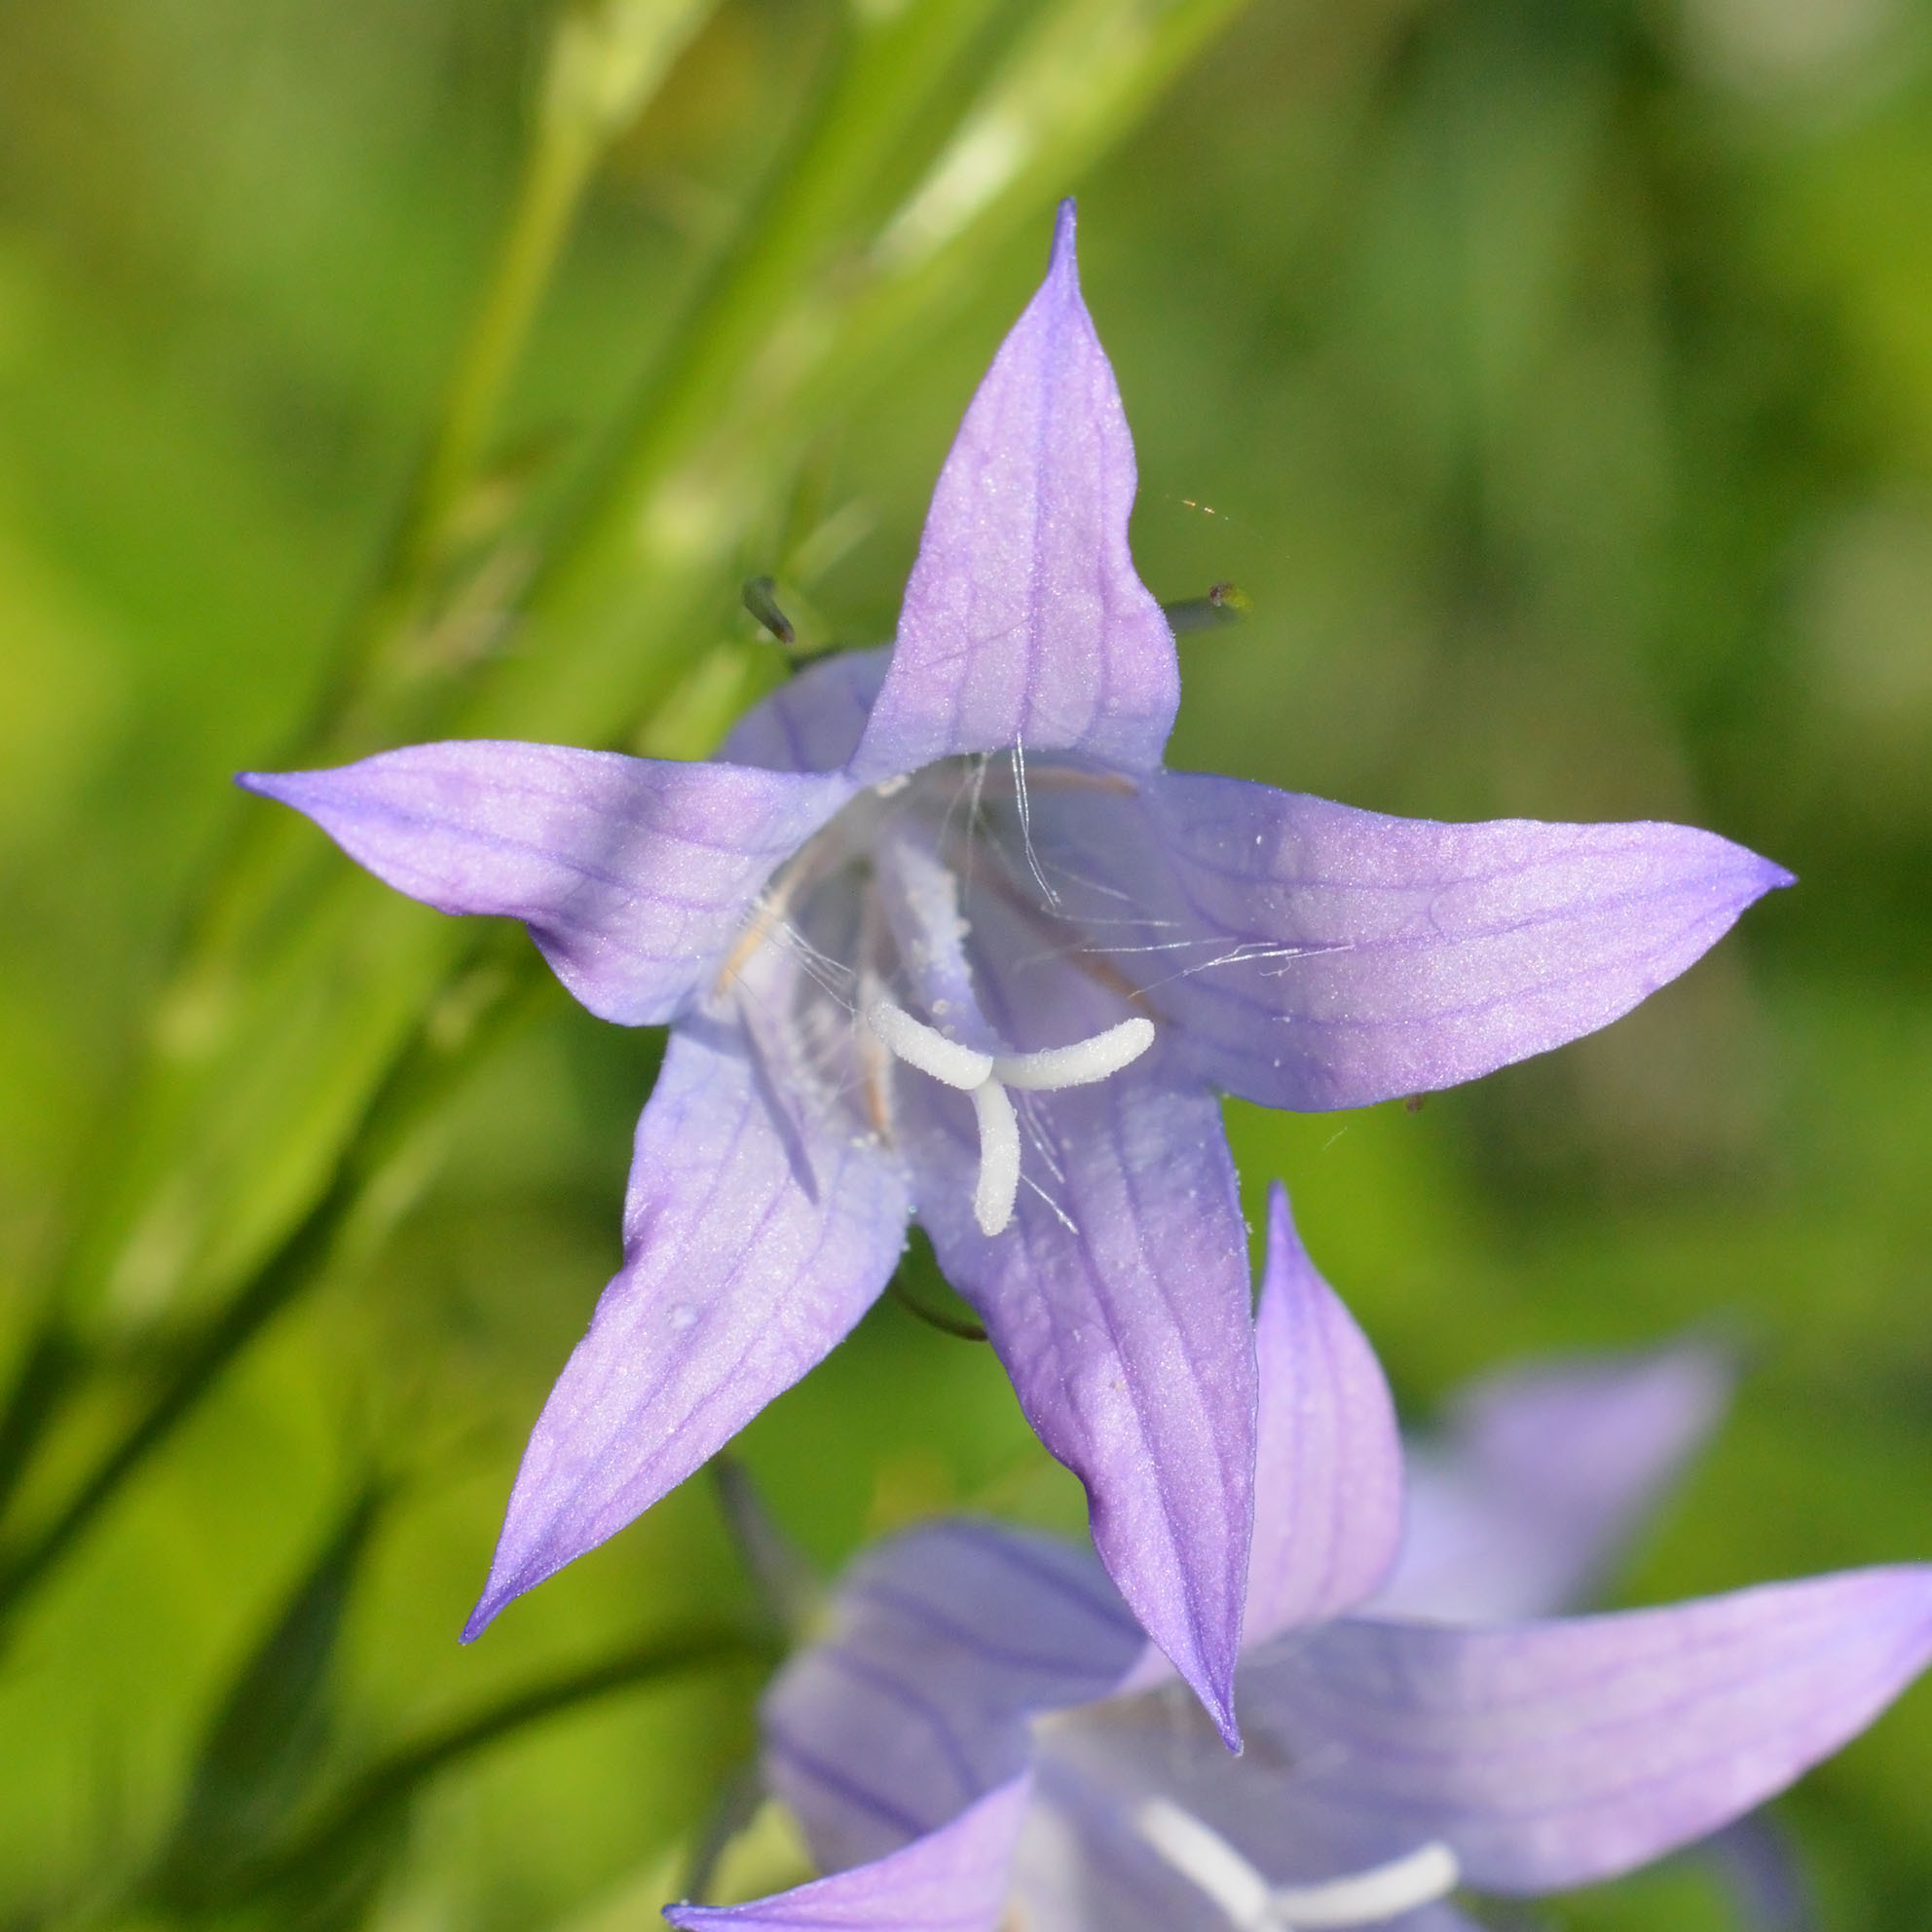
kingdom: Plantae
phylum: Tracheophyta
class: Magnoliopsida
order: Asterales
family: Campanulaceae
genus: Campanula
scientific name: Campanula rapunculus
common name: Rampion bellflower
